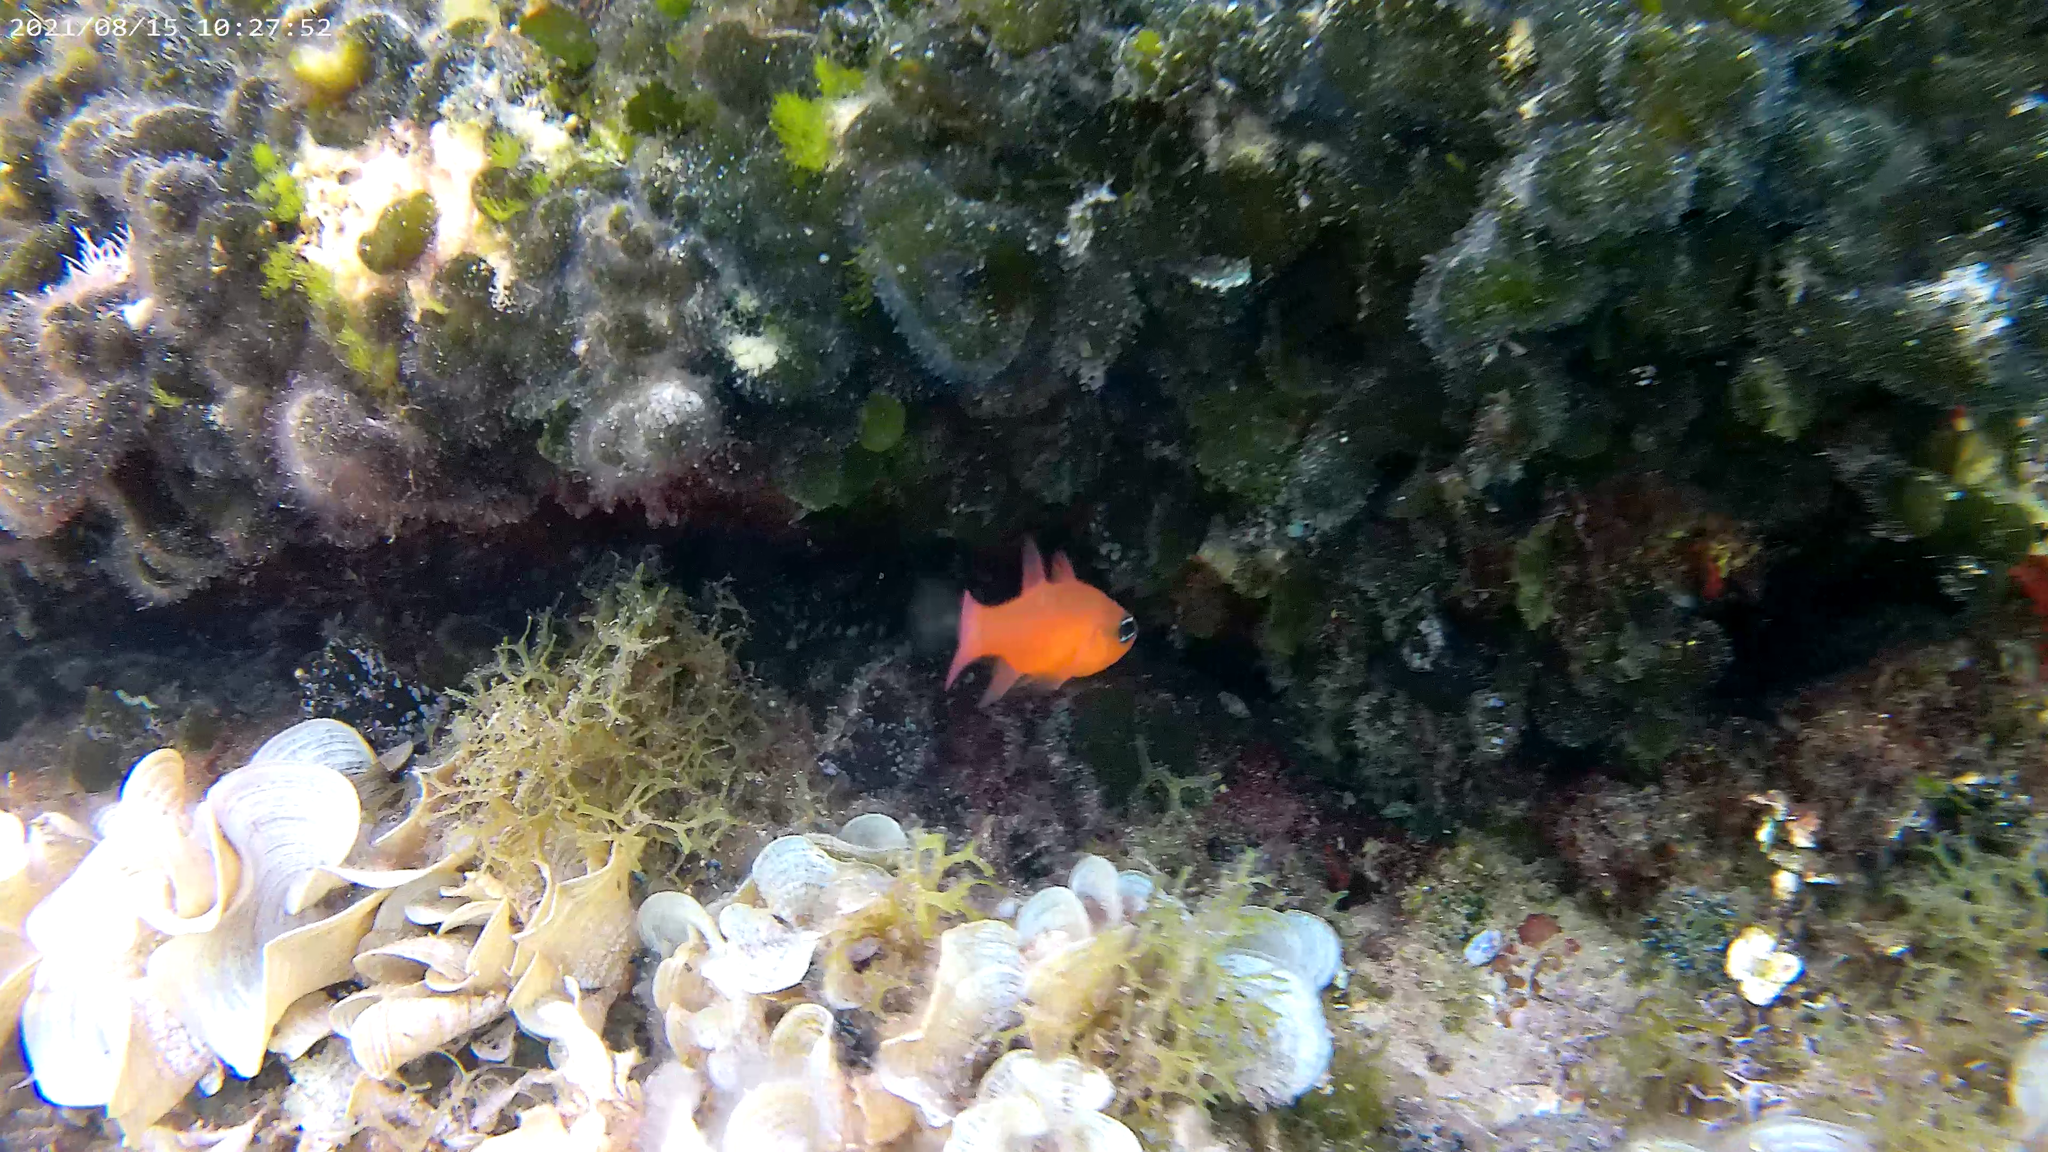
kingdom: Animalia
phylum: Chordata
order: Perciformes
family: Apogonidae
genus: Apogon
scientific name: Apogon imberbis
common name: Cardinal fish
